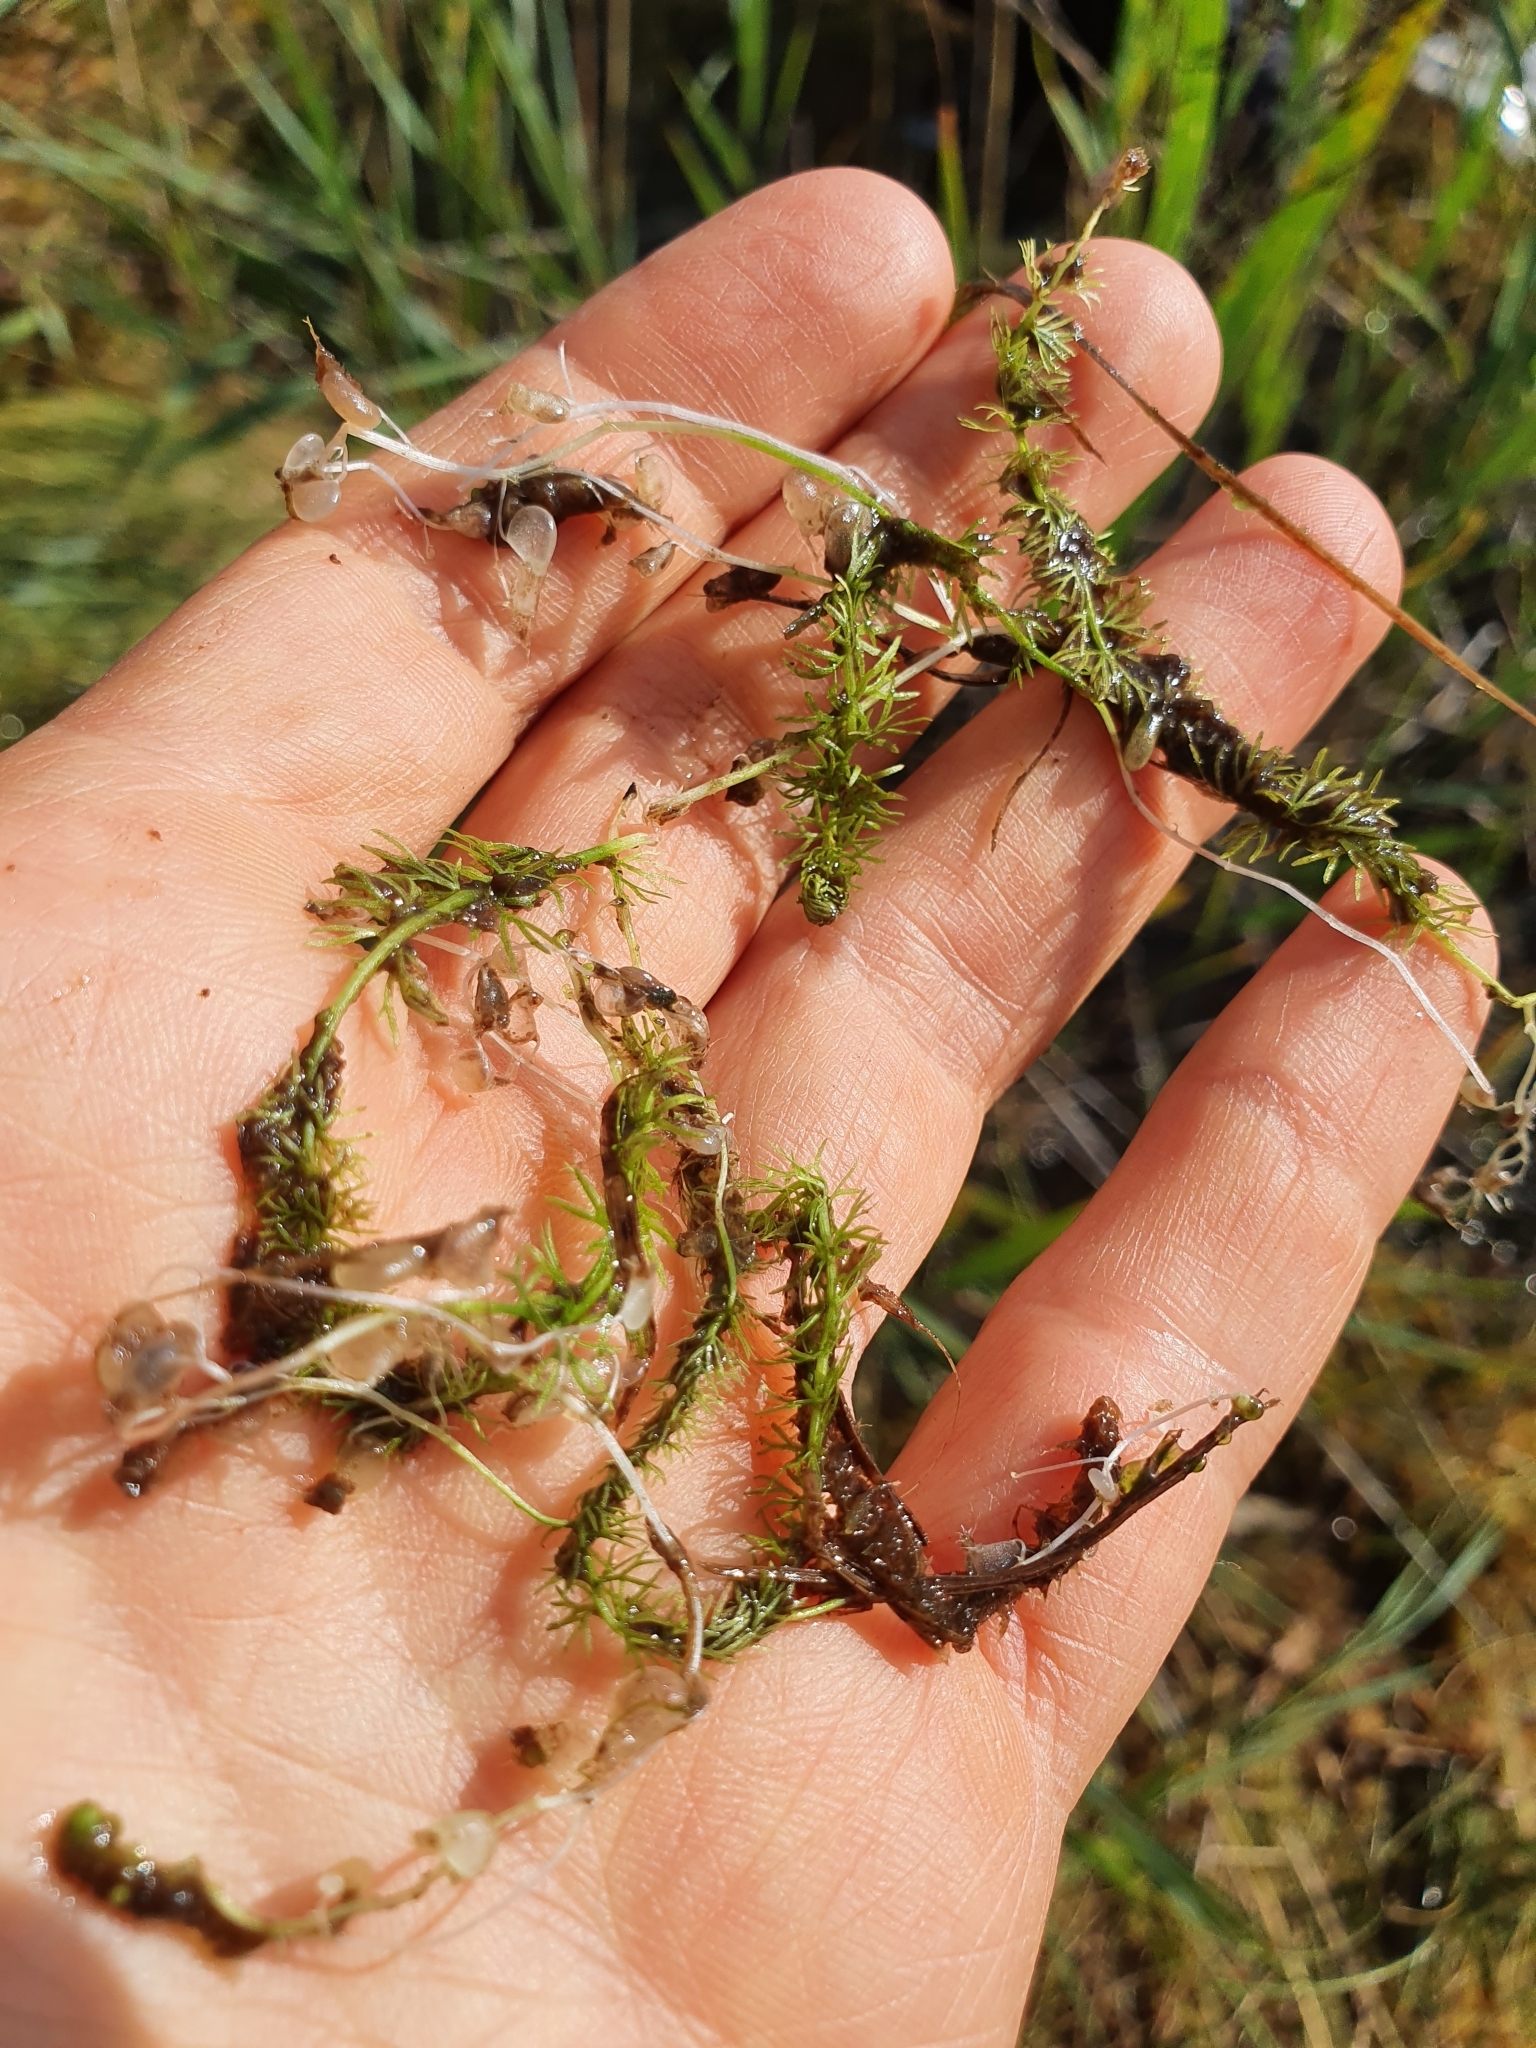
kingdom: Plantae
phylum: Tracheophyta
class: Magnoliopsida
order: Lamiales
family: Lentibulariaceae
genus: Utricularia
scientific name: Utricularia intermedia
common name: Intermediate bladderwort
